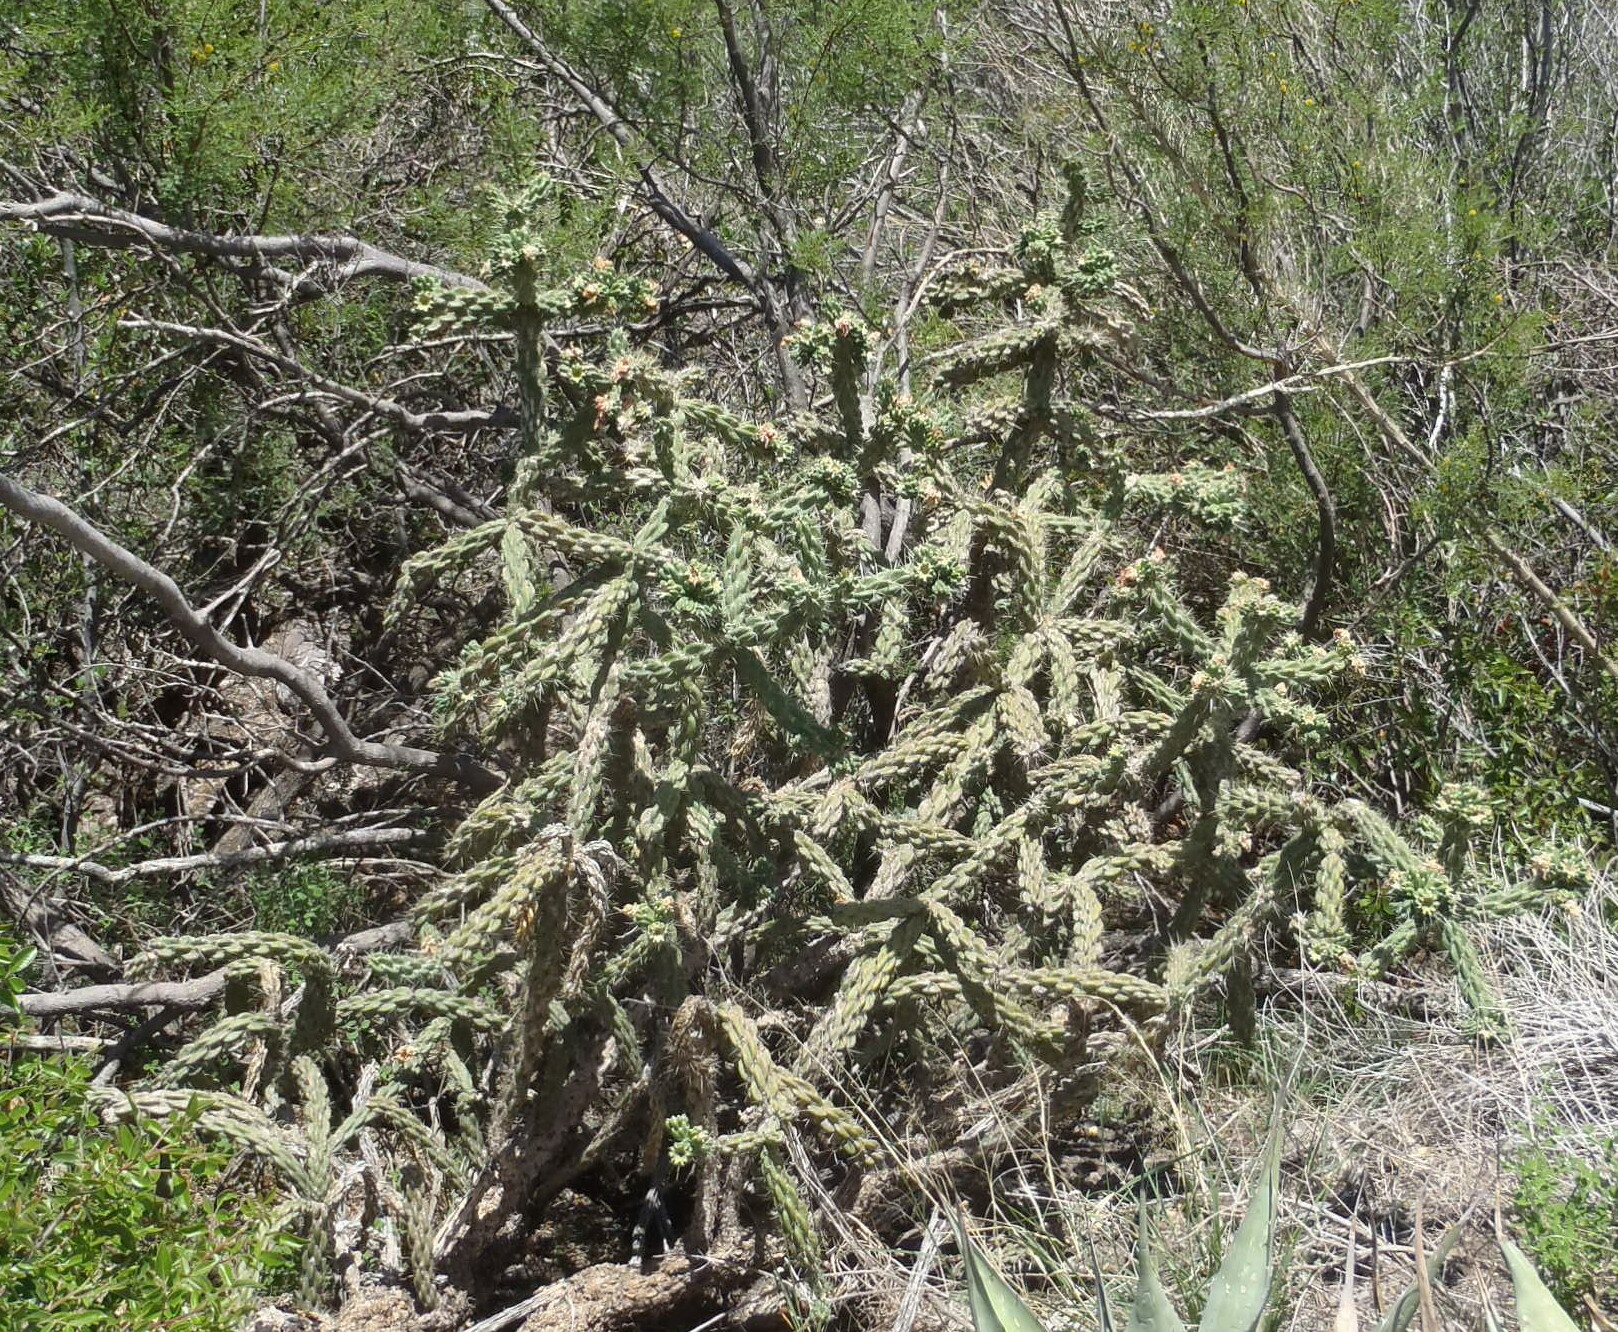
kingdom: Plantae
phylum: Tracheophyta
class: Magnoliopsida
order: Caryophyllales
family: Cactaceae
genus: Cylindropuntia
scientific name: Cylindropuntia imbricata
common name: Candelabrum cactus
